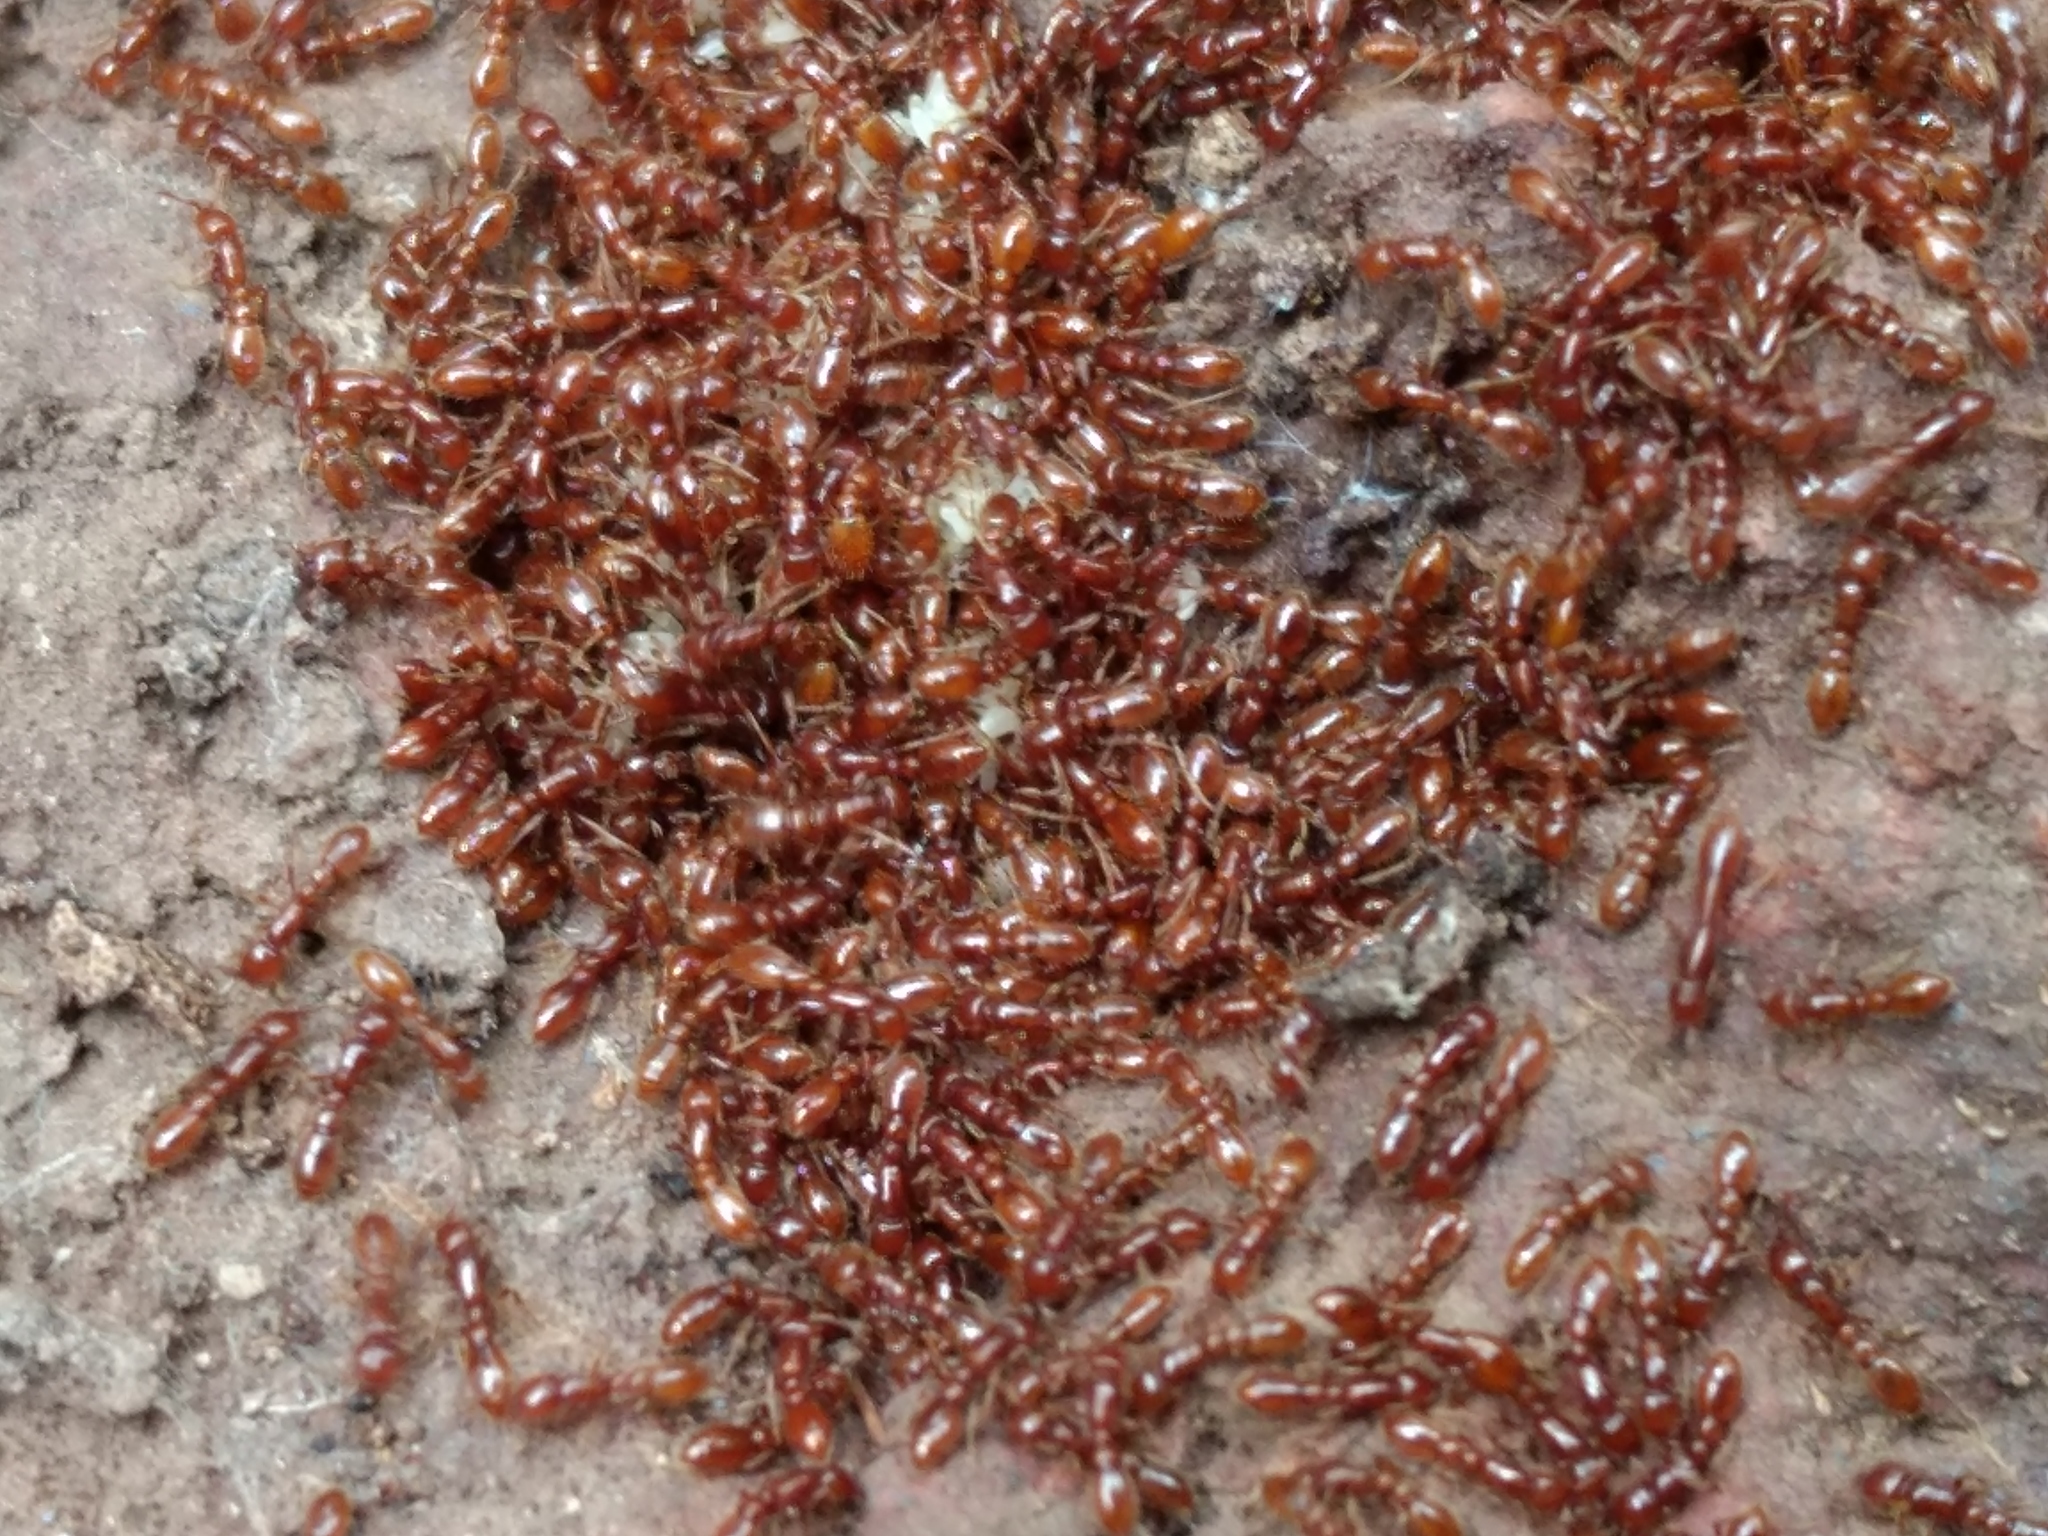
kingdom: Animalia
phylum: Arthropoda
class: Insecta
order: Hymenoptera
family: Formicidae
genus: Ooceraea
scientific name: Ooceraea
